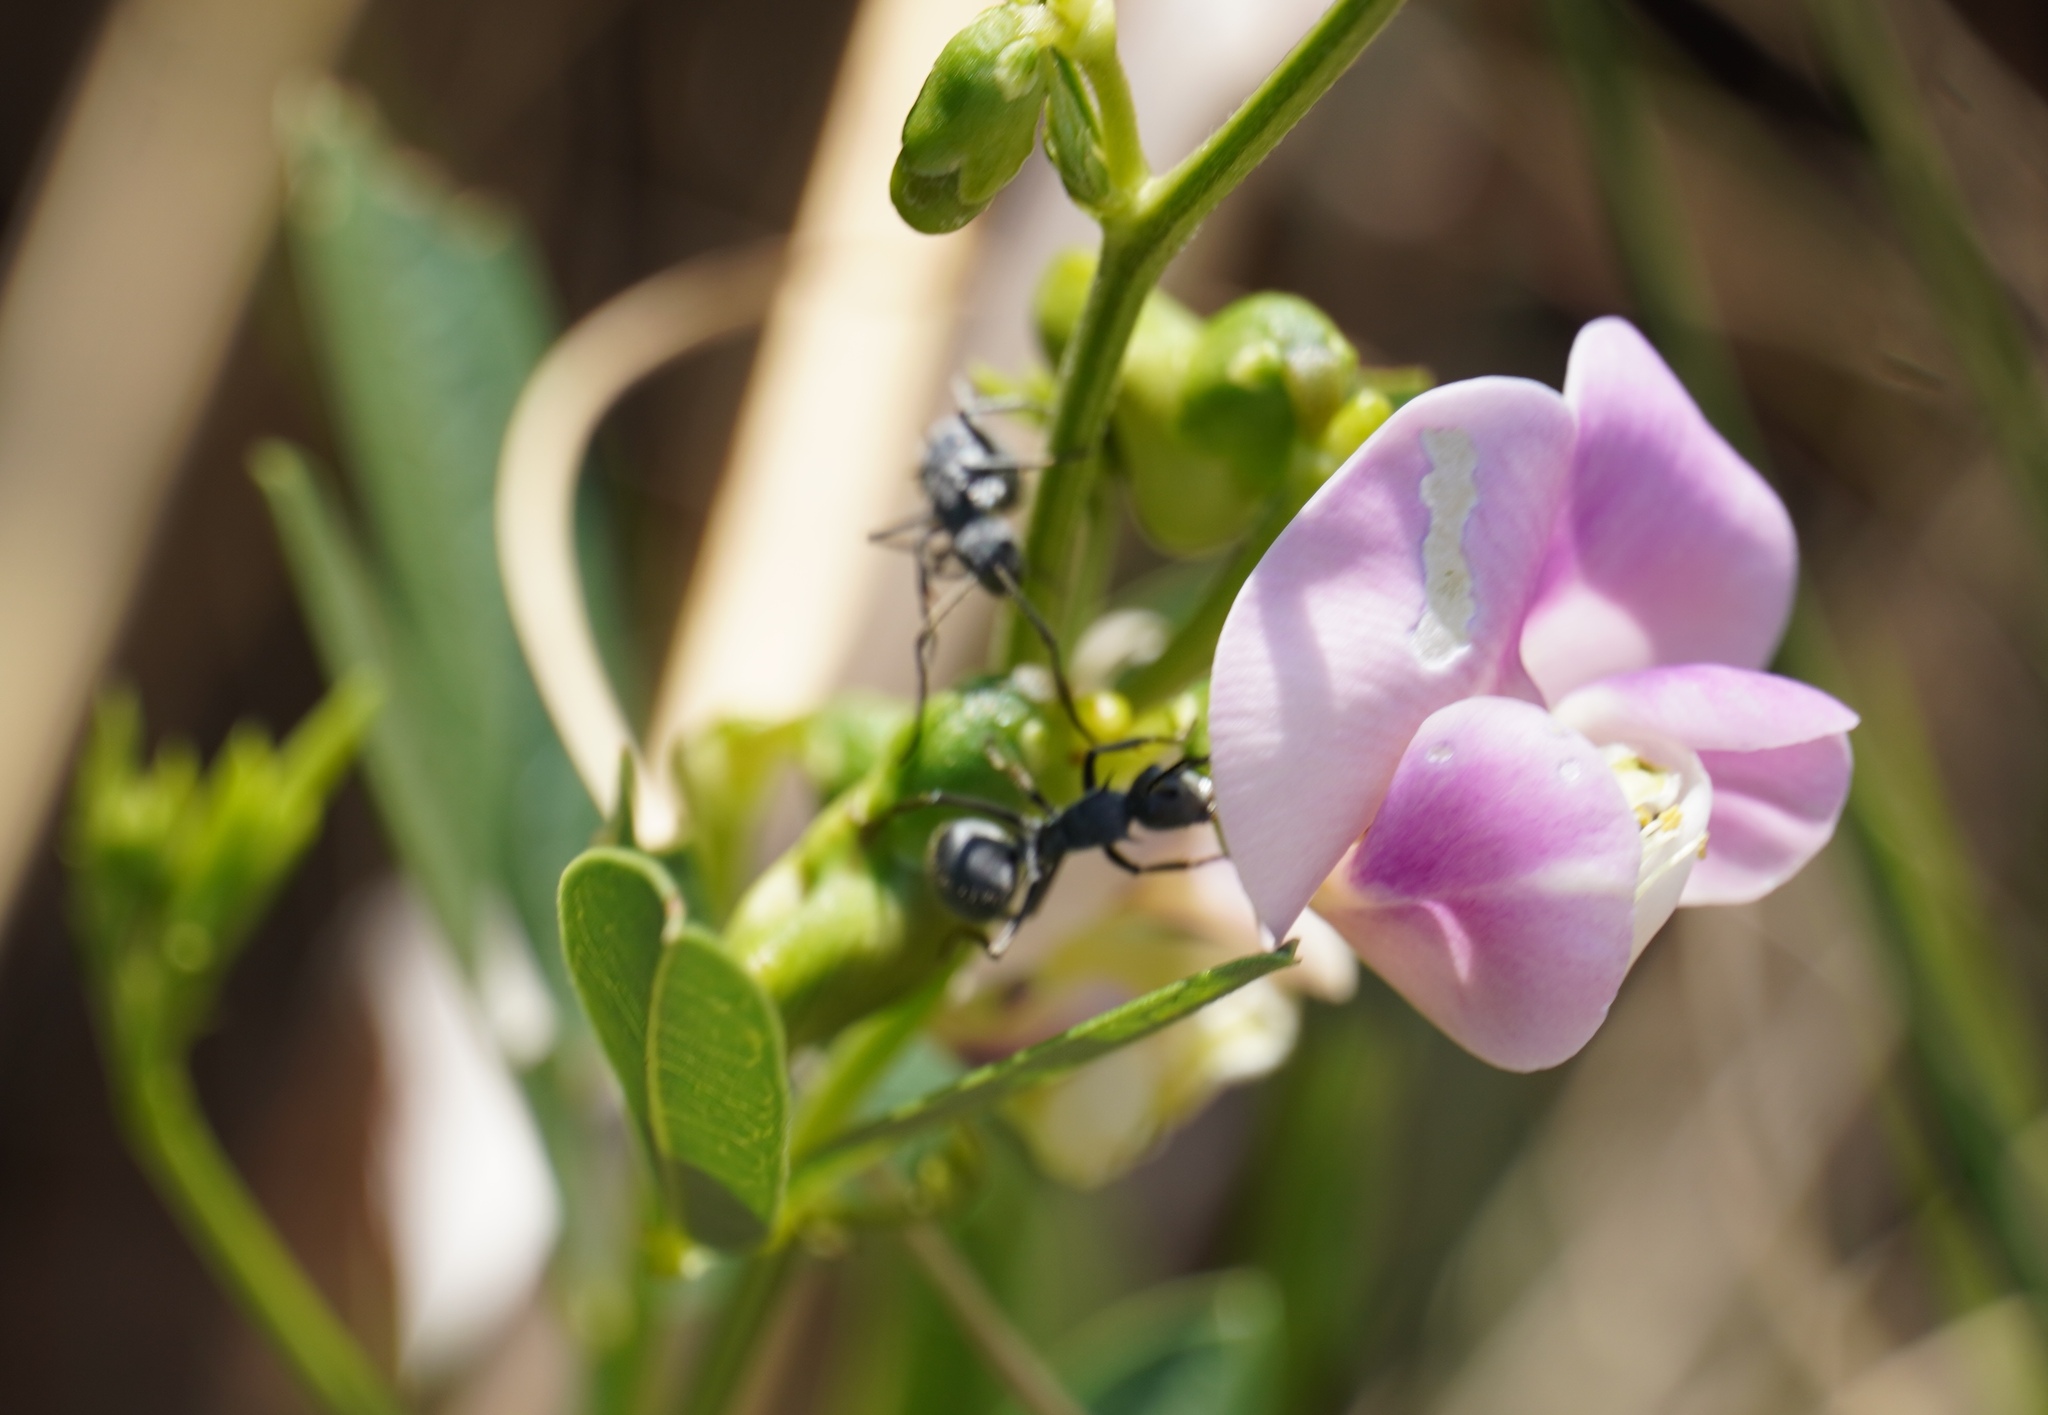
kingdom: Plantae
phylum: Tracheophyta
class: Magnoliopsida
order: Fabales
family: Fabaceae
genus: Sphenostylis
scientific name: Sphenostylis angustifolia
